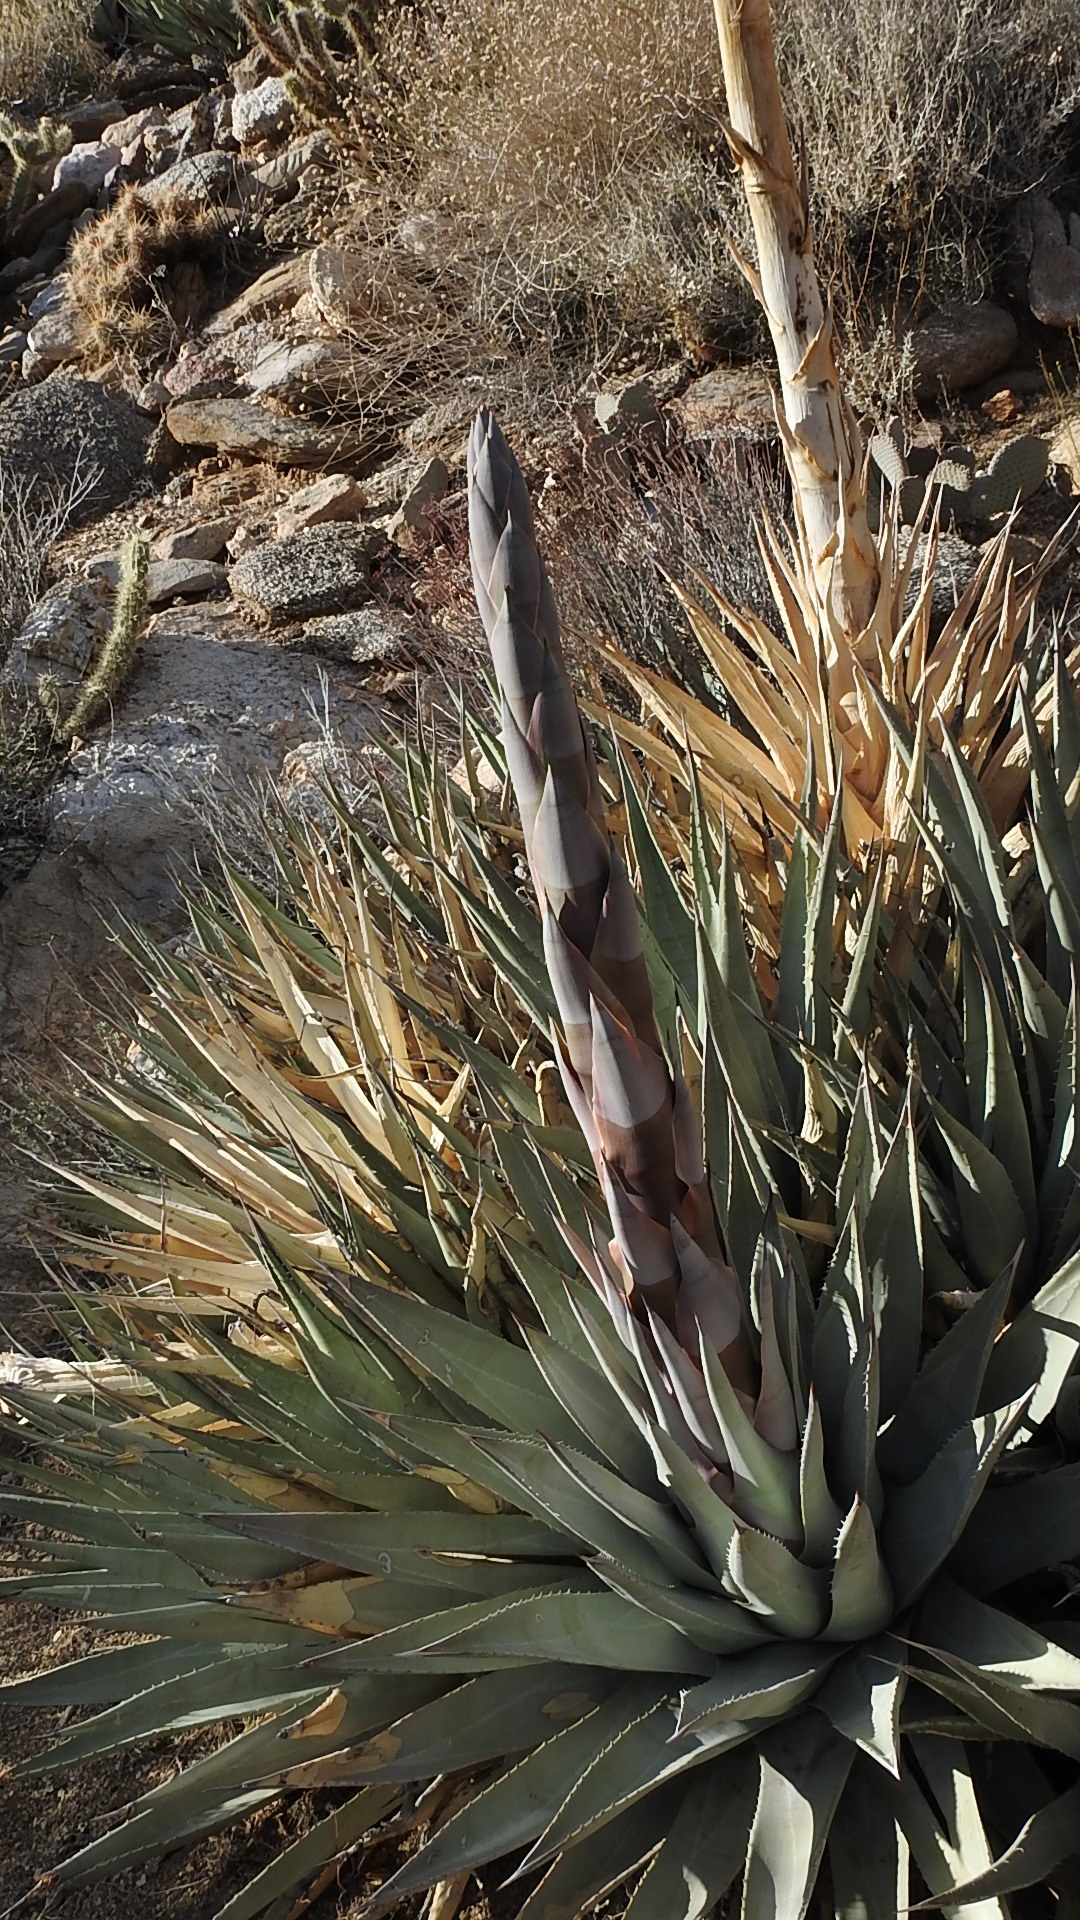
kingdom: Plantae
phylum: Tracheophyta
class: Liliopsida
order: Asparagales
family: Asparagaceae
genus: Agave
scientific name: Agave deserti
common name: Desert agave
